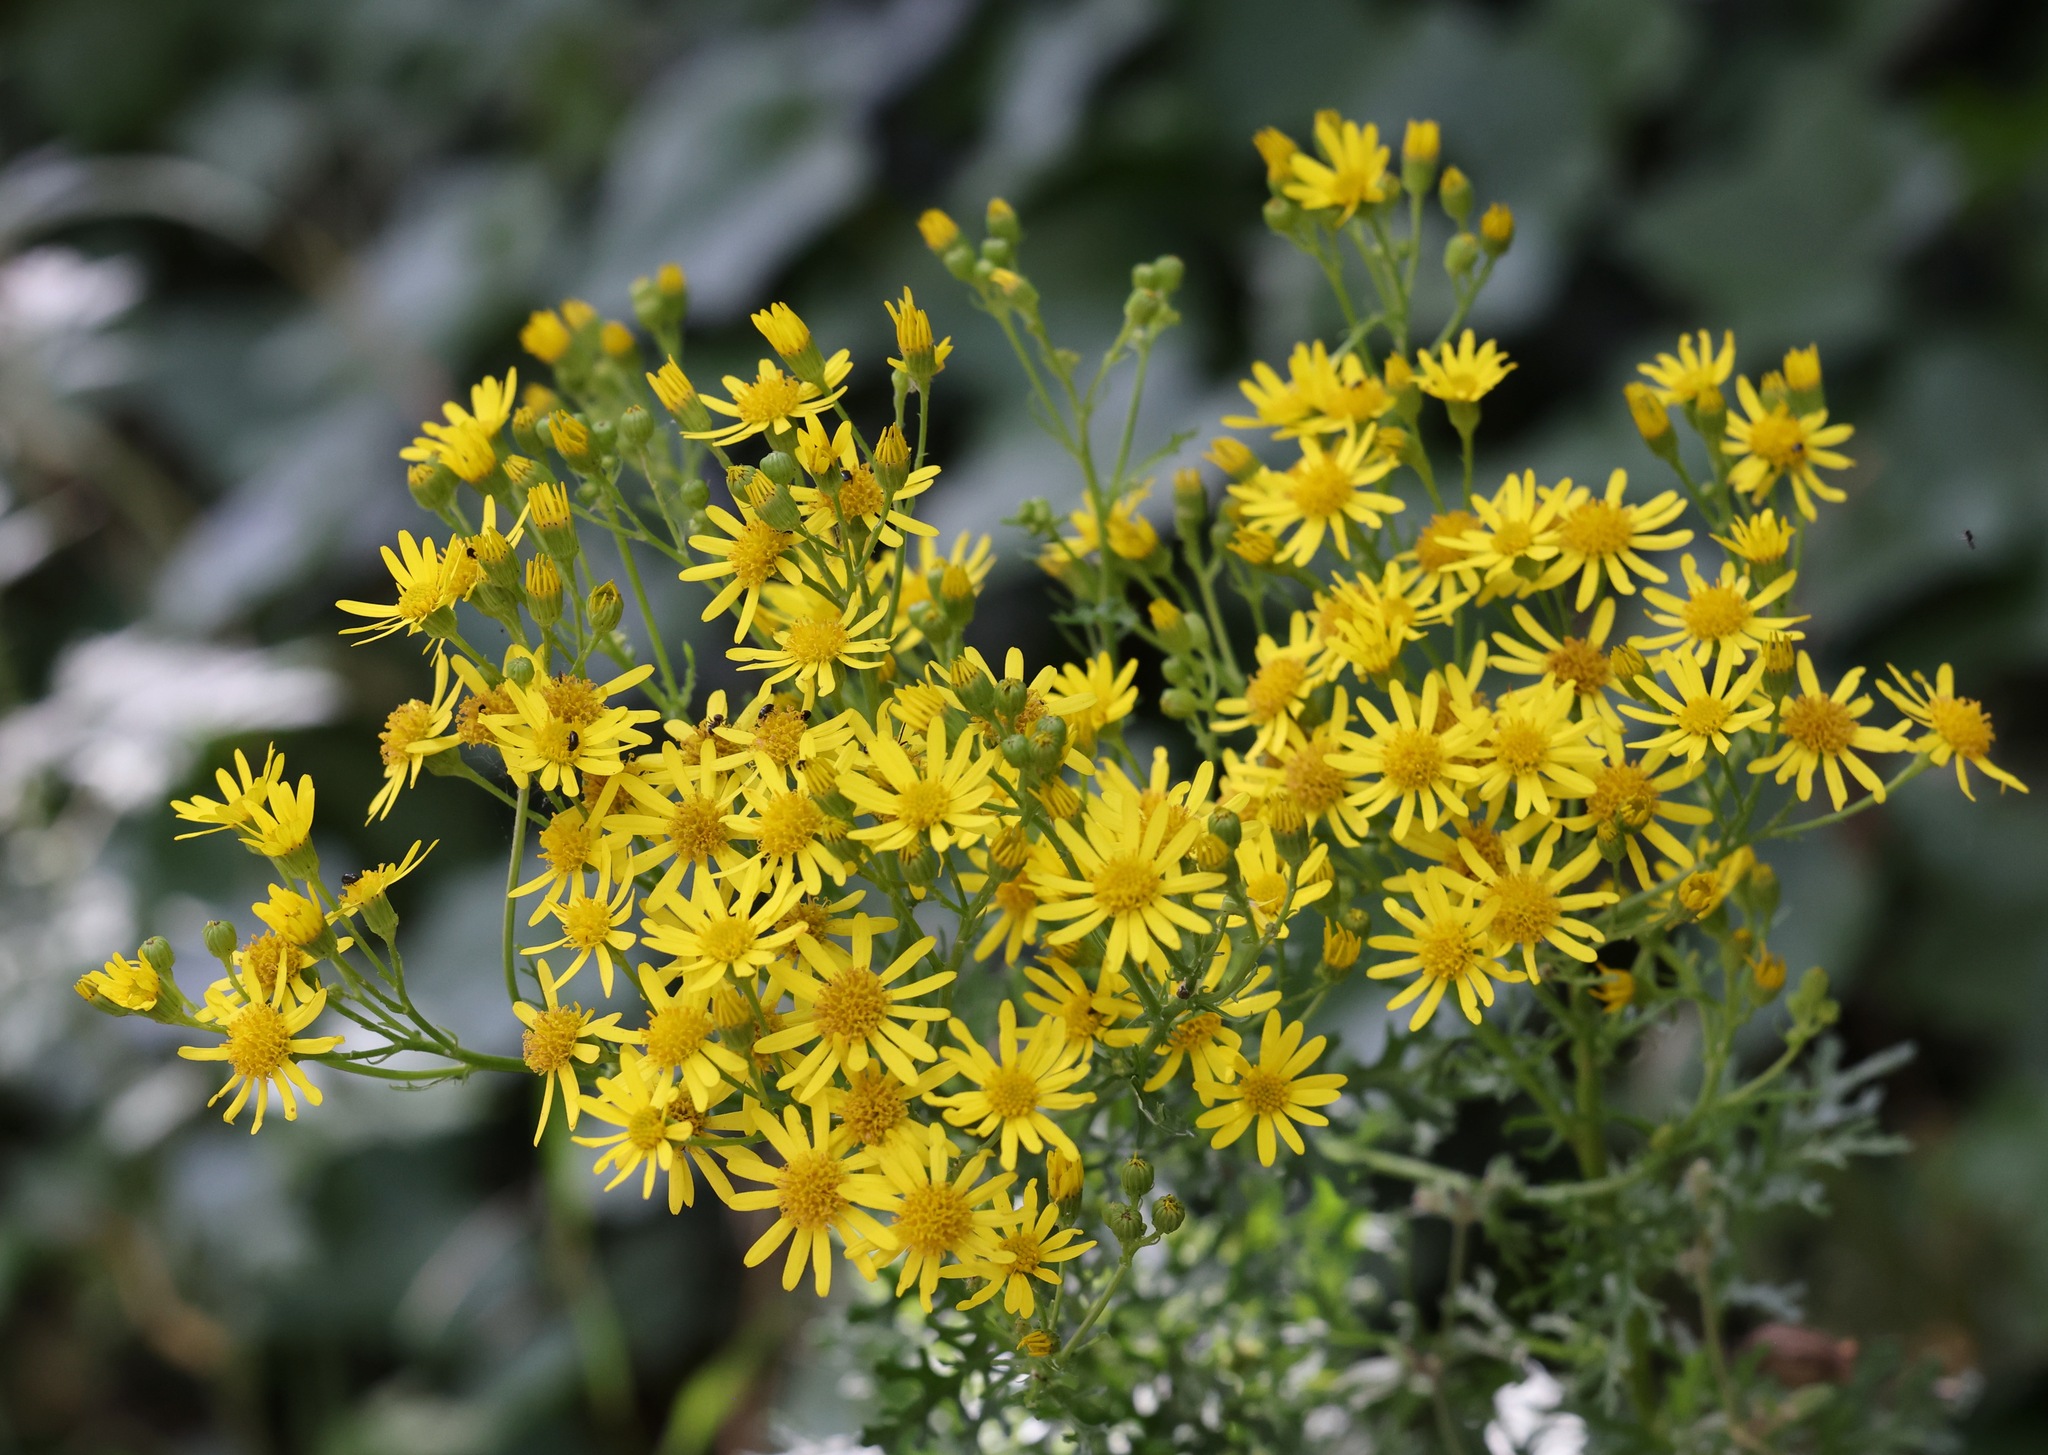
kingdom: Plantae
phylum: Tracheophyta
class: Magnoliopsida
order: Asterales
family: Asteraceae
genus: Jacobaea
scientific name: Jacobaea vulgaris
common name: Stinking willie
